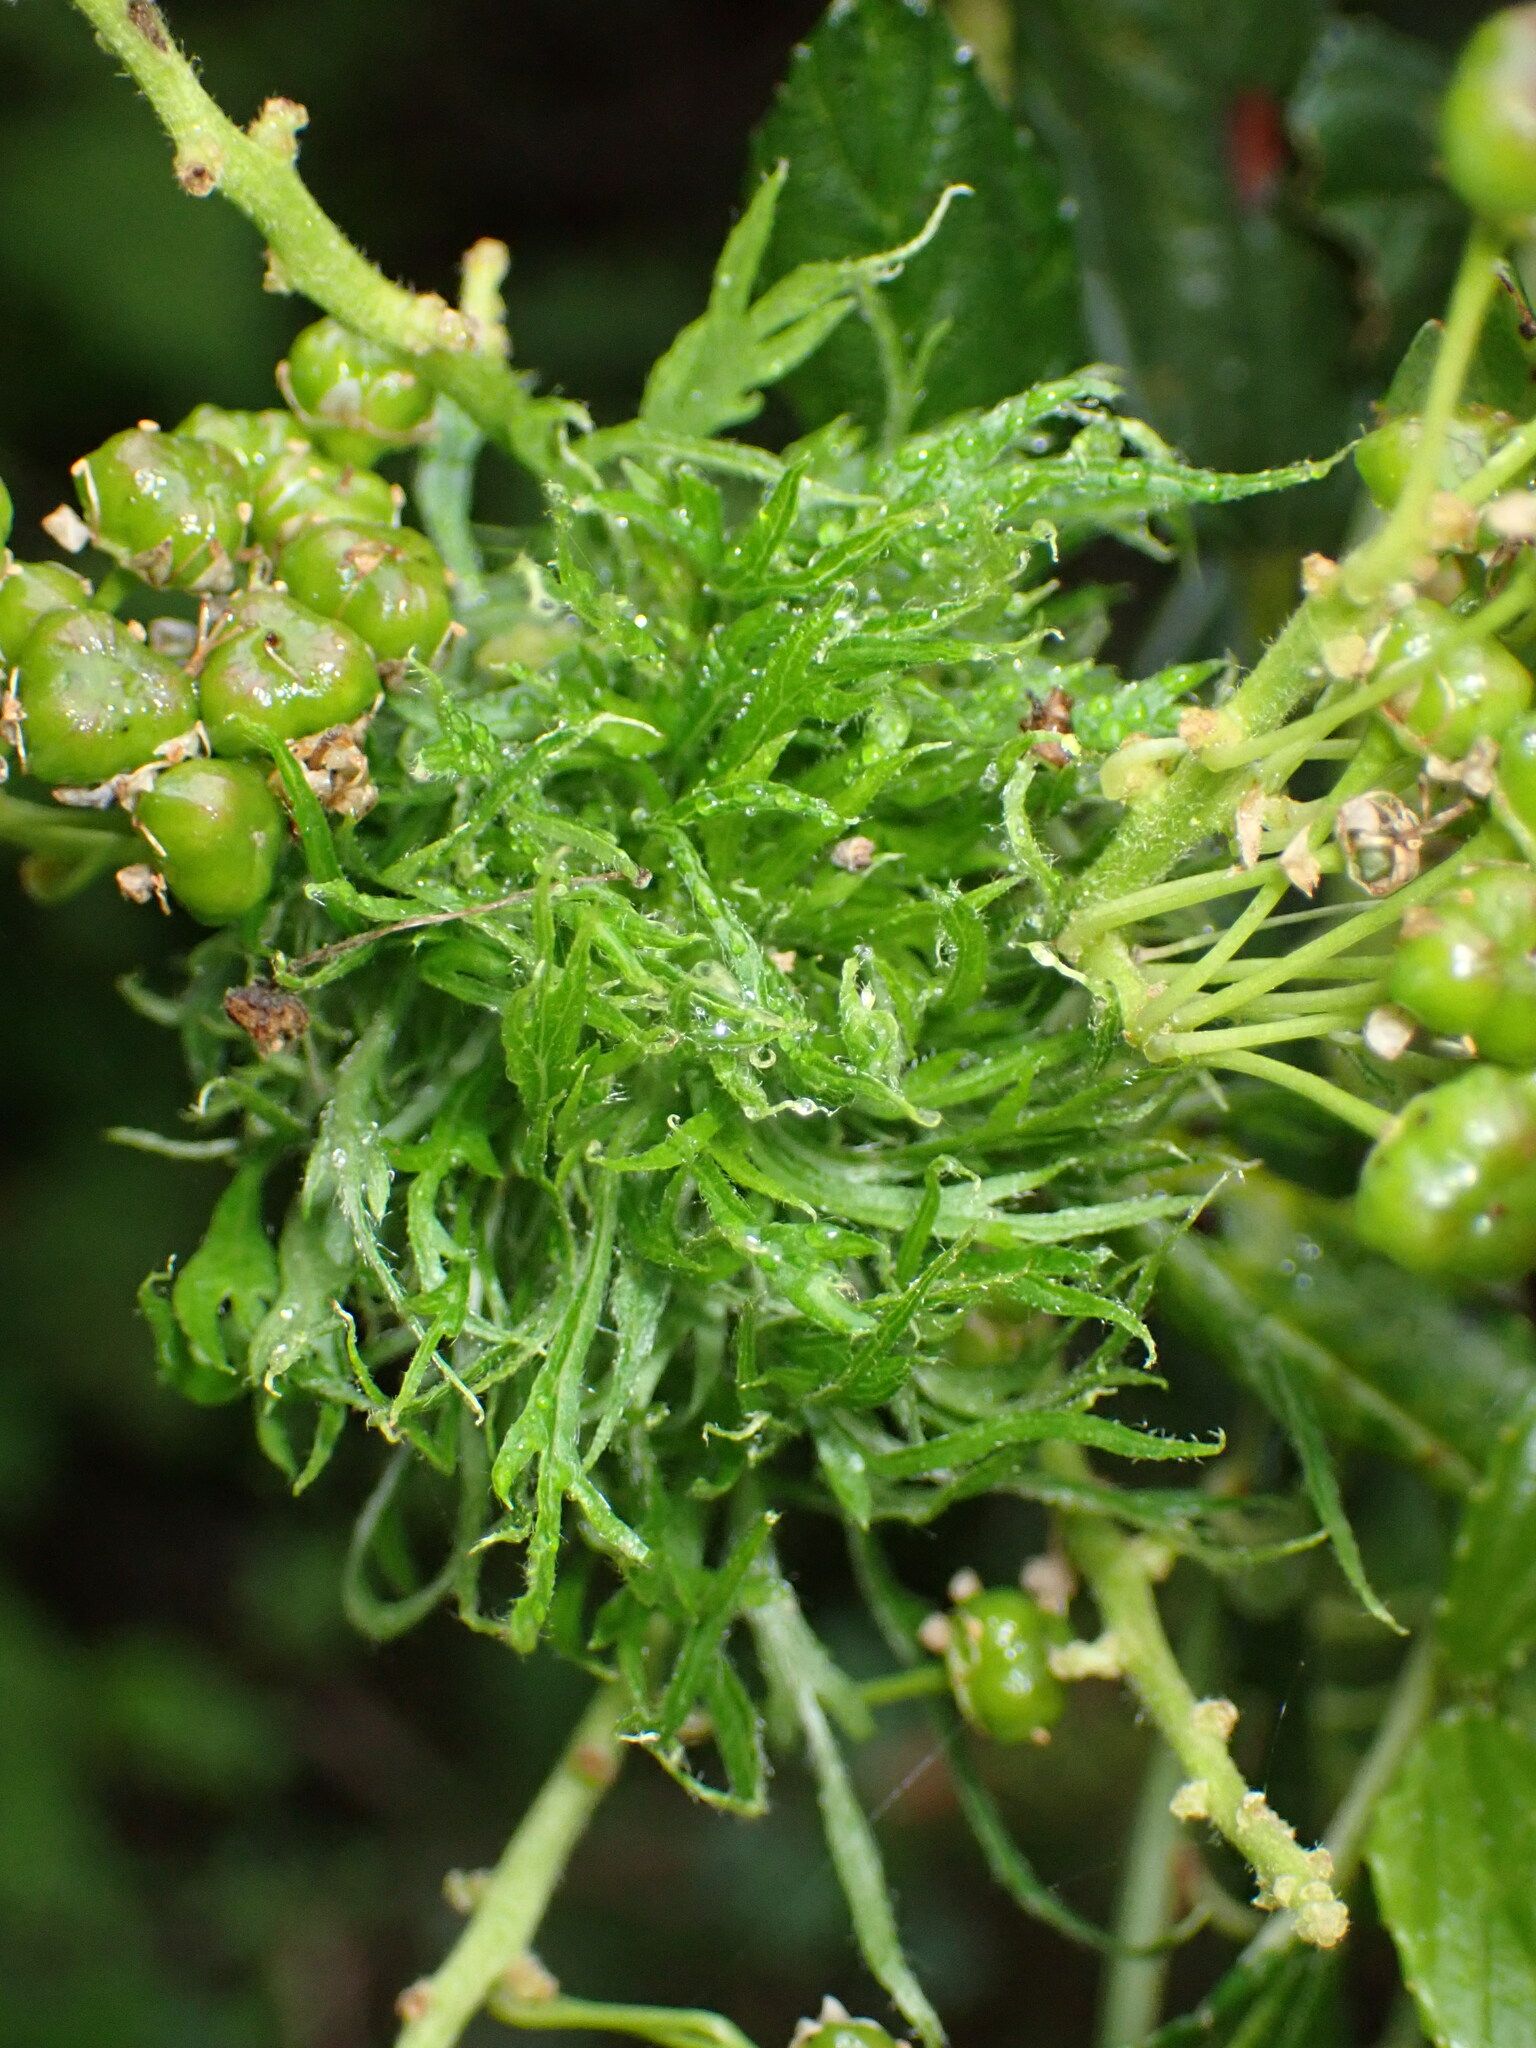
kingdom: Animalia
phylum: Arthropoda
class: Insecta
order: Diptera
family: Cecidomyiidae
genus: Asphondylia
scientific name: Asphondylia ceanothi
